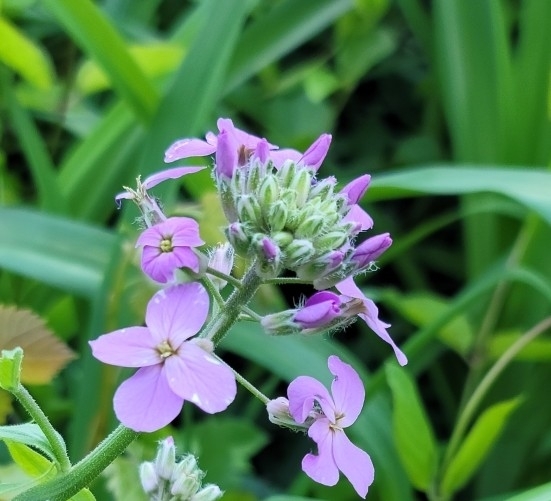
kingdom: Plantae
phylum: Tracheophyta
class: Magnoliopsida
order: Brassicales
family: Brassicaceae
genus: Hesperis
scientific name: Hesperis matronalis
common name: Dame's-violet
